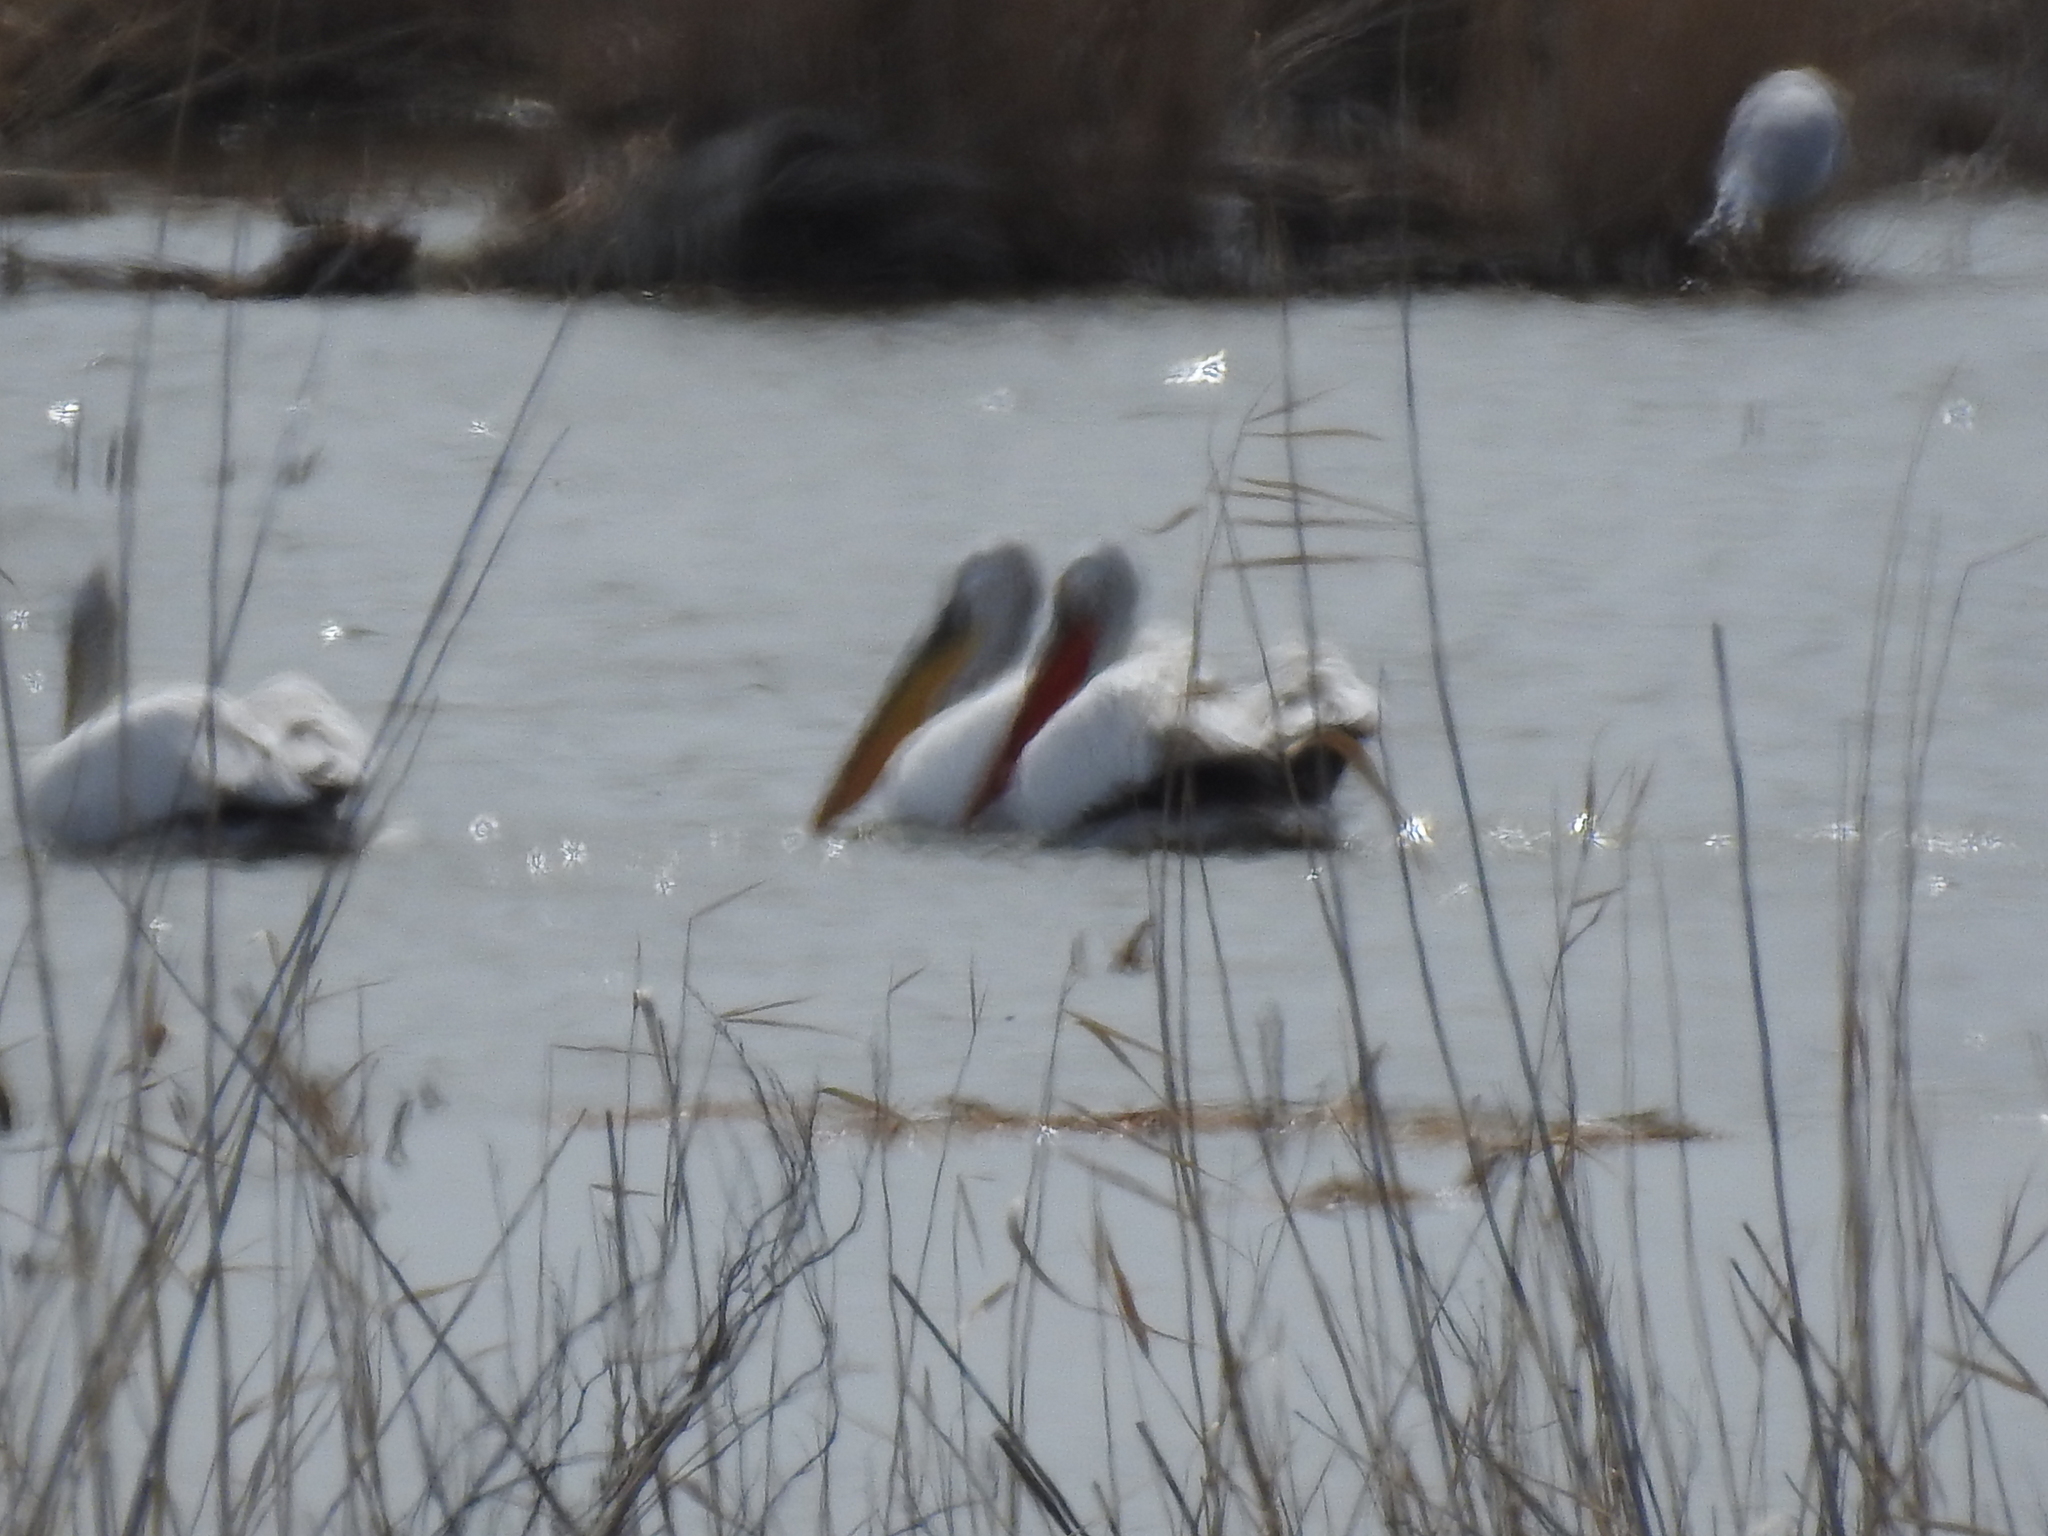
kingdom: Animalia
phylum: Chordata
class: Aves
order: Pelecaniformes
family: Pelecanidae
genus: Pelecanus
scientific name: Pelecanus crispus
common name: Dalmatian pelican
